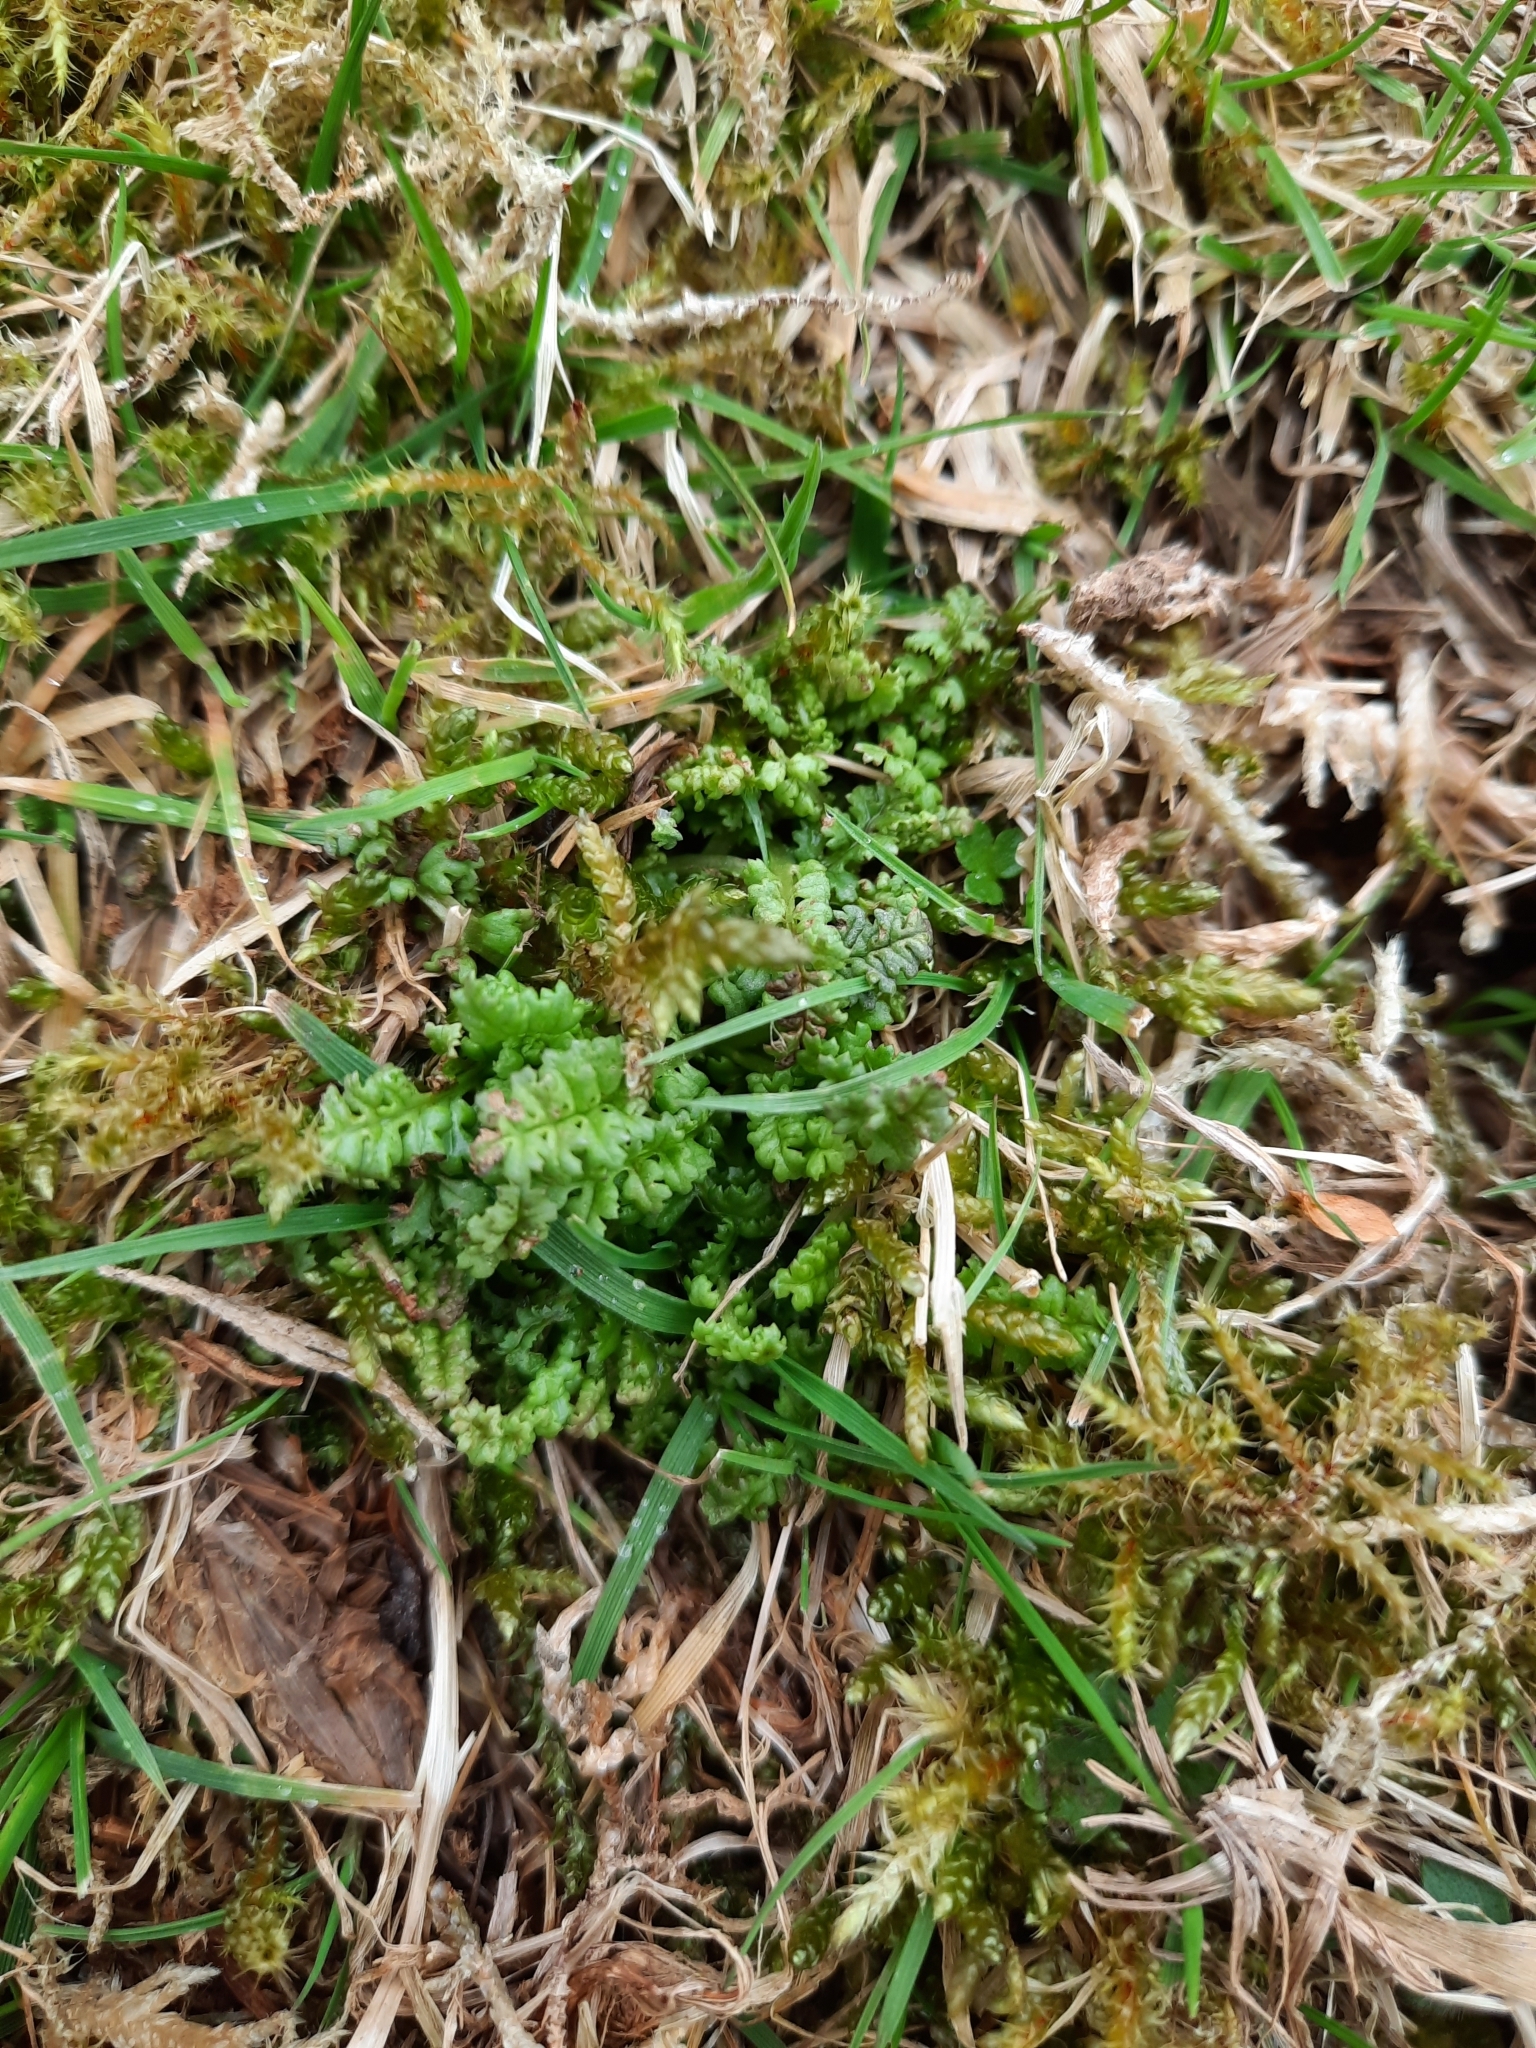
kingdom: Plantae
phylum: Tracheophyta
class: Magnoliopsida
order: Lamiales
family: Orobanchaceae
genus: Pedicularis
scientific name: Pedicularis sylvatica
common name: Lousewort
